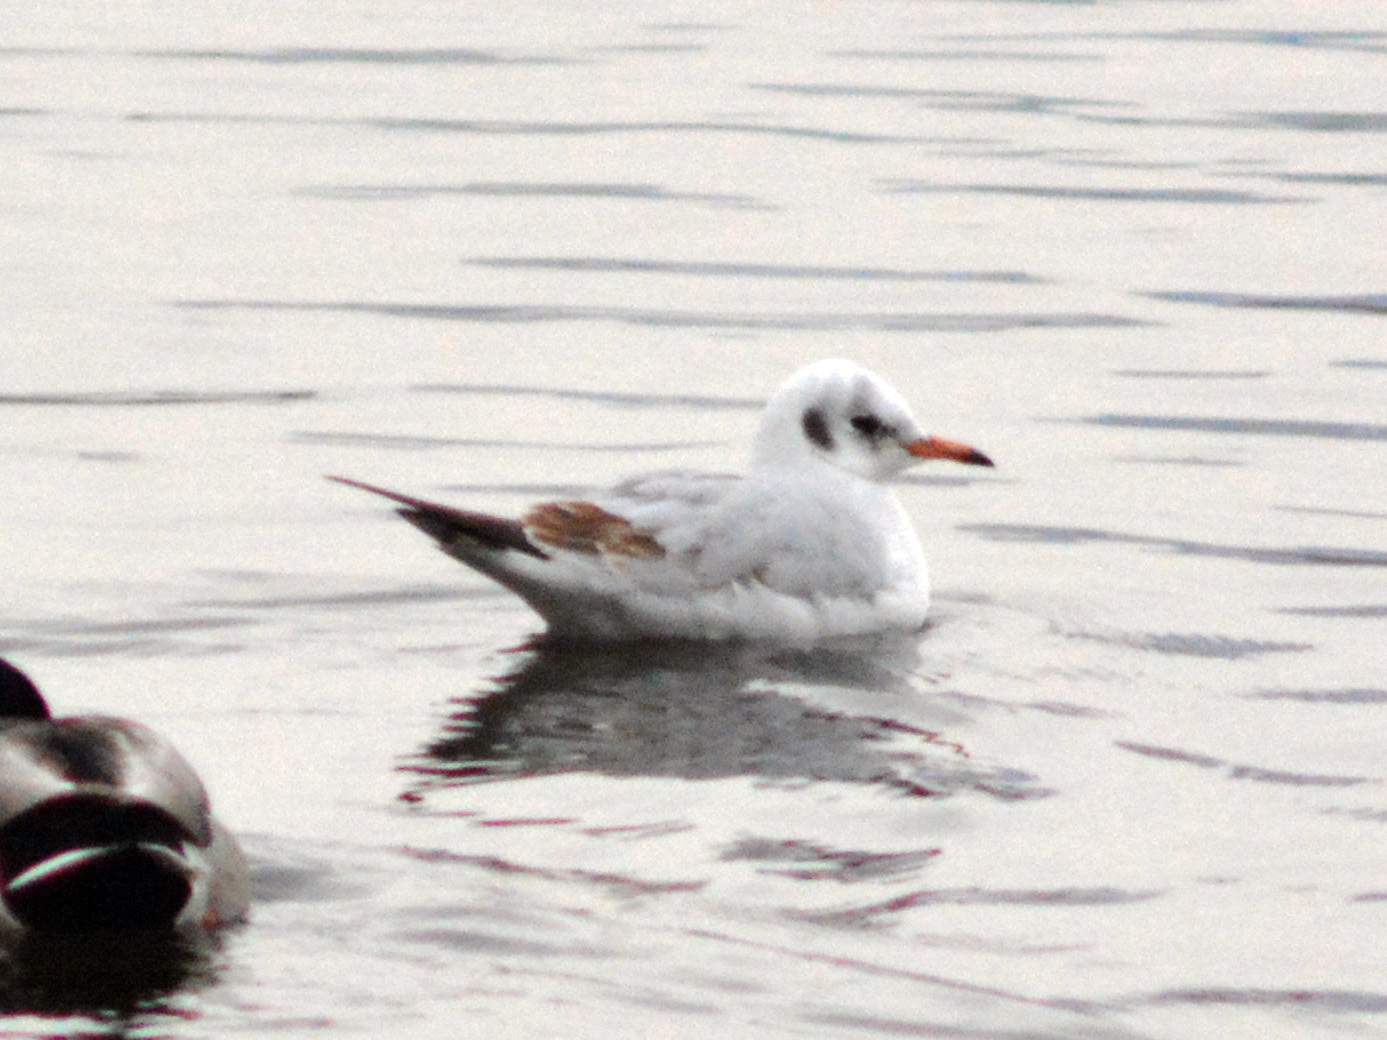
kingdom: Animalia
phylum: Chordata
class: Aves
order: Charadriiformes
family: Laridae
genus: Chroicocephalus
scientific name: Chroicocephalus ridibundus
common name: Black-headed gull
